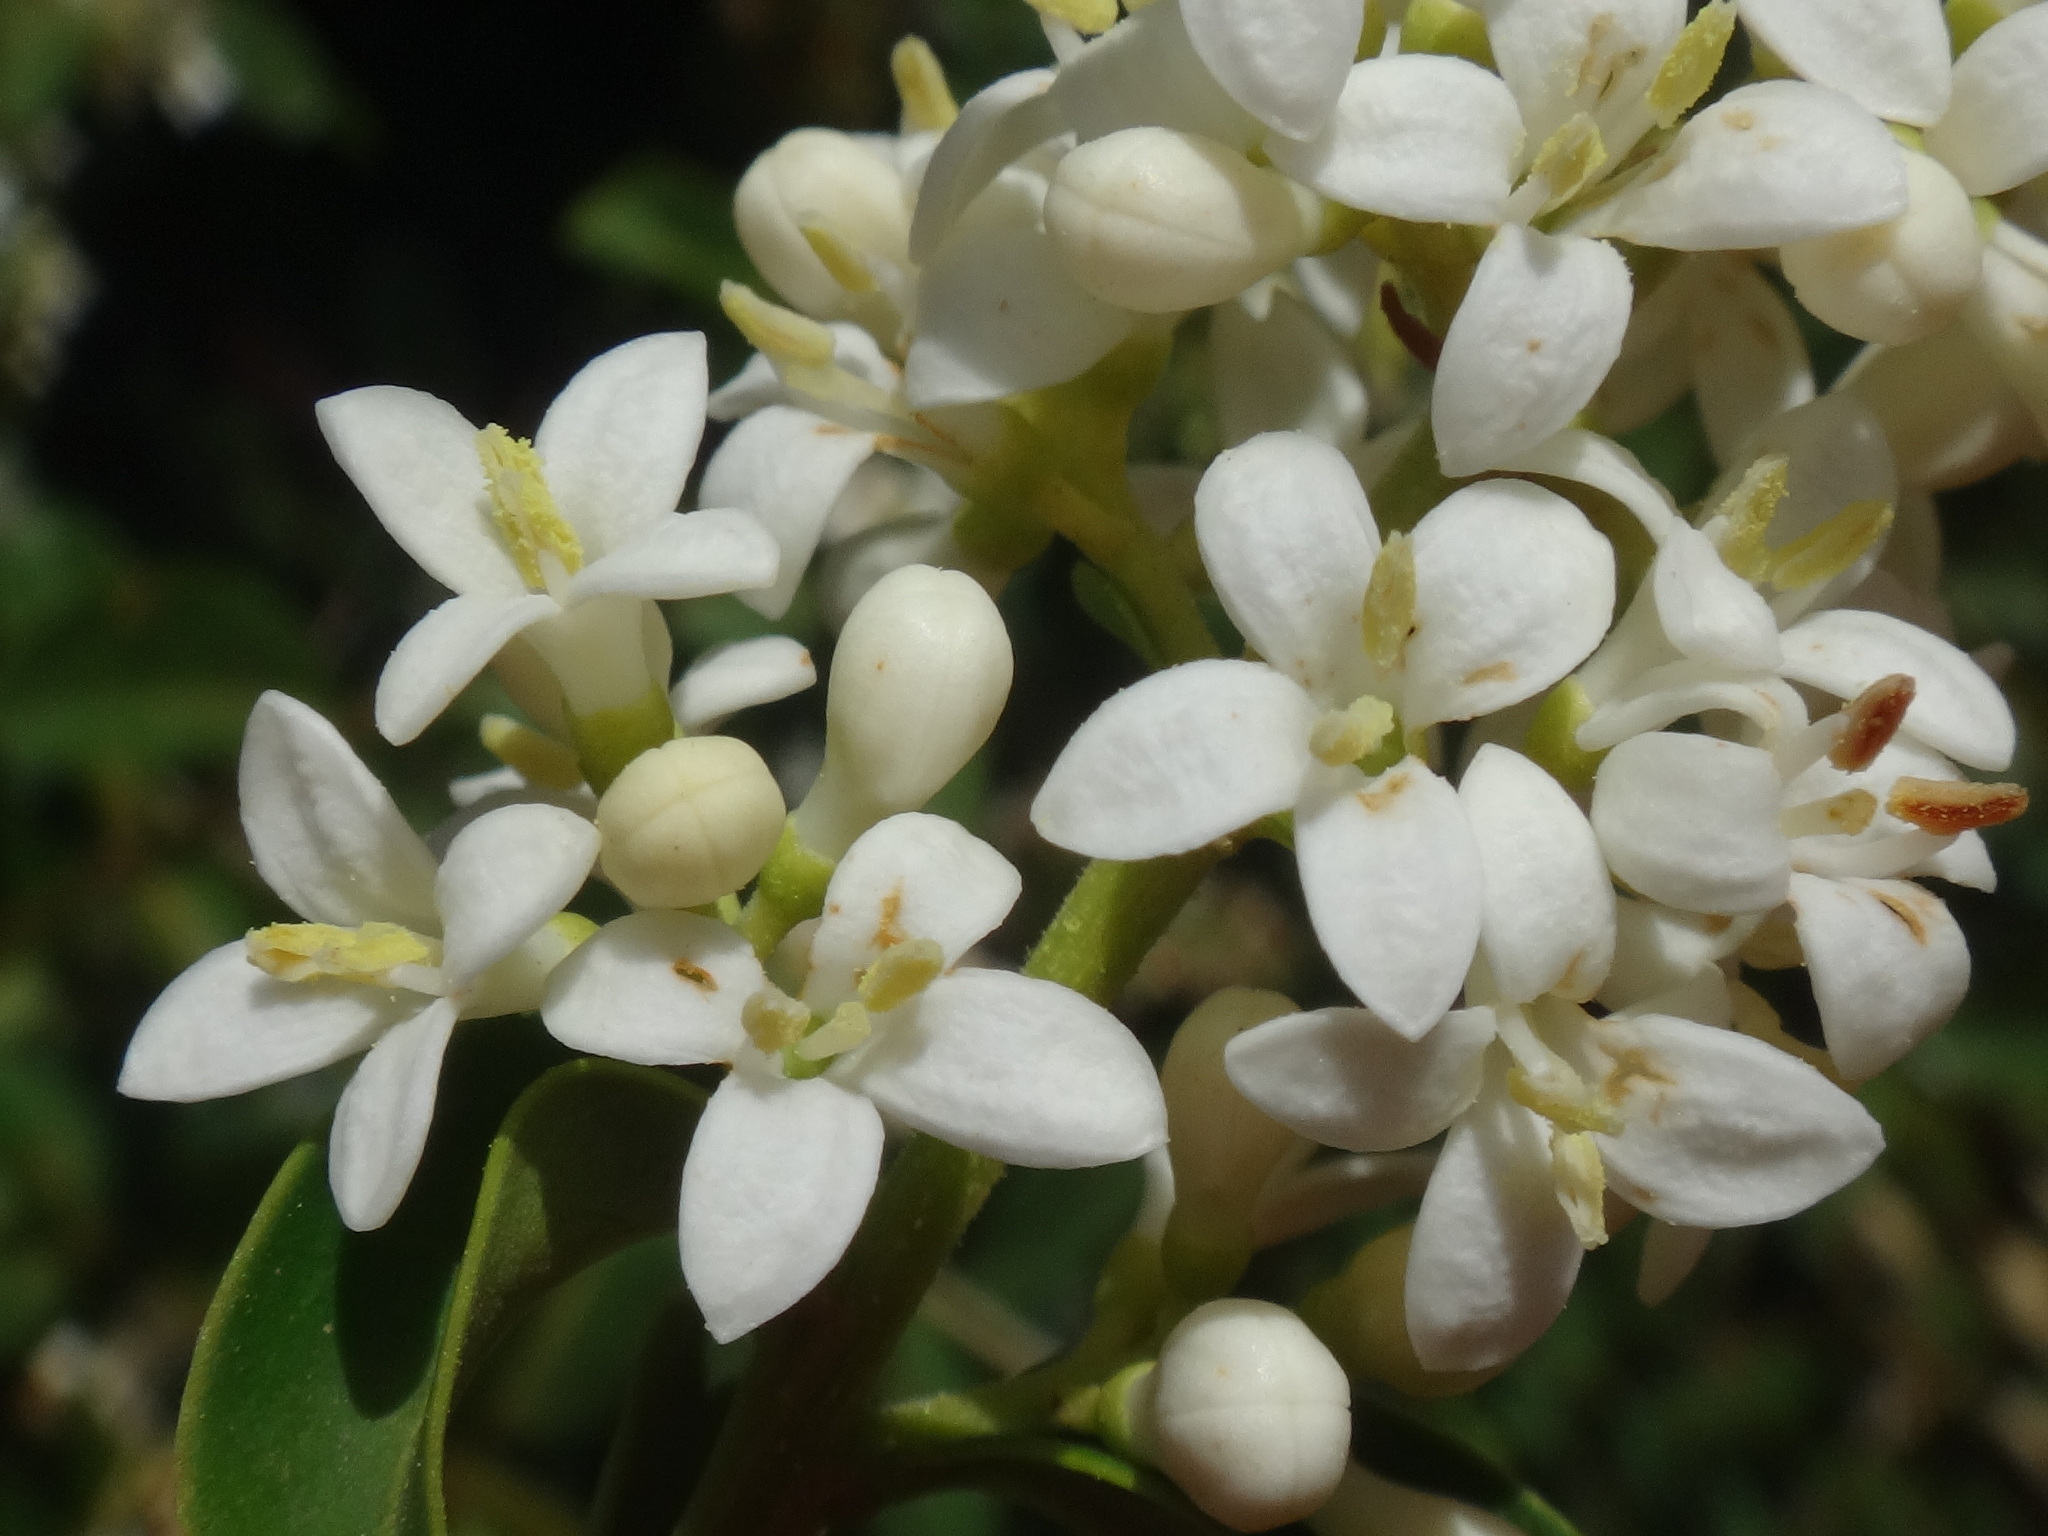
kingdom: Plantae
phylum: Tracheophyta
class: Magnoliopsida
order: Lamiales
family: Oleaceae
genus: Ligustrum
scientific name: Ligustrum vulgare
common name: Wild privet
